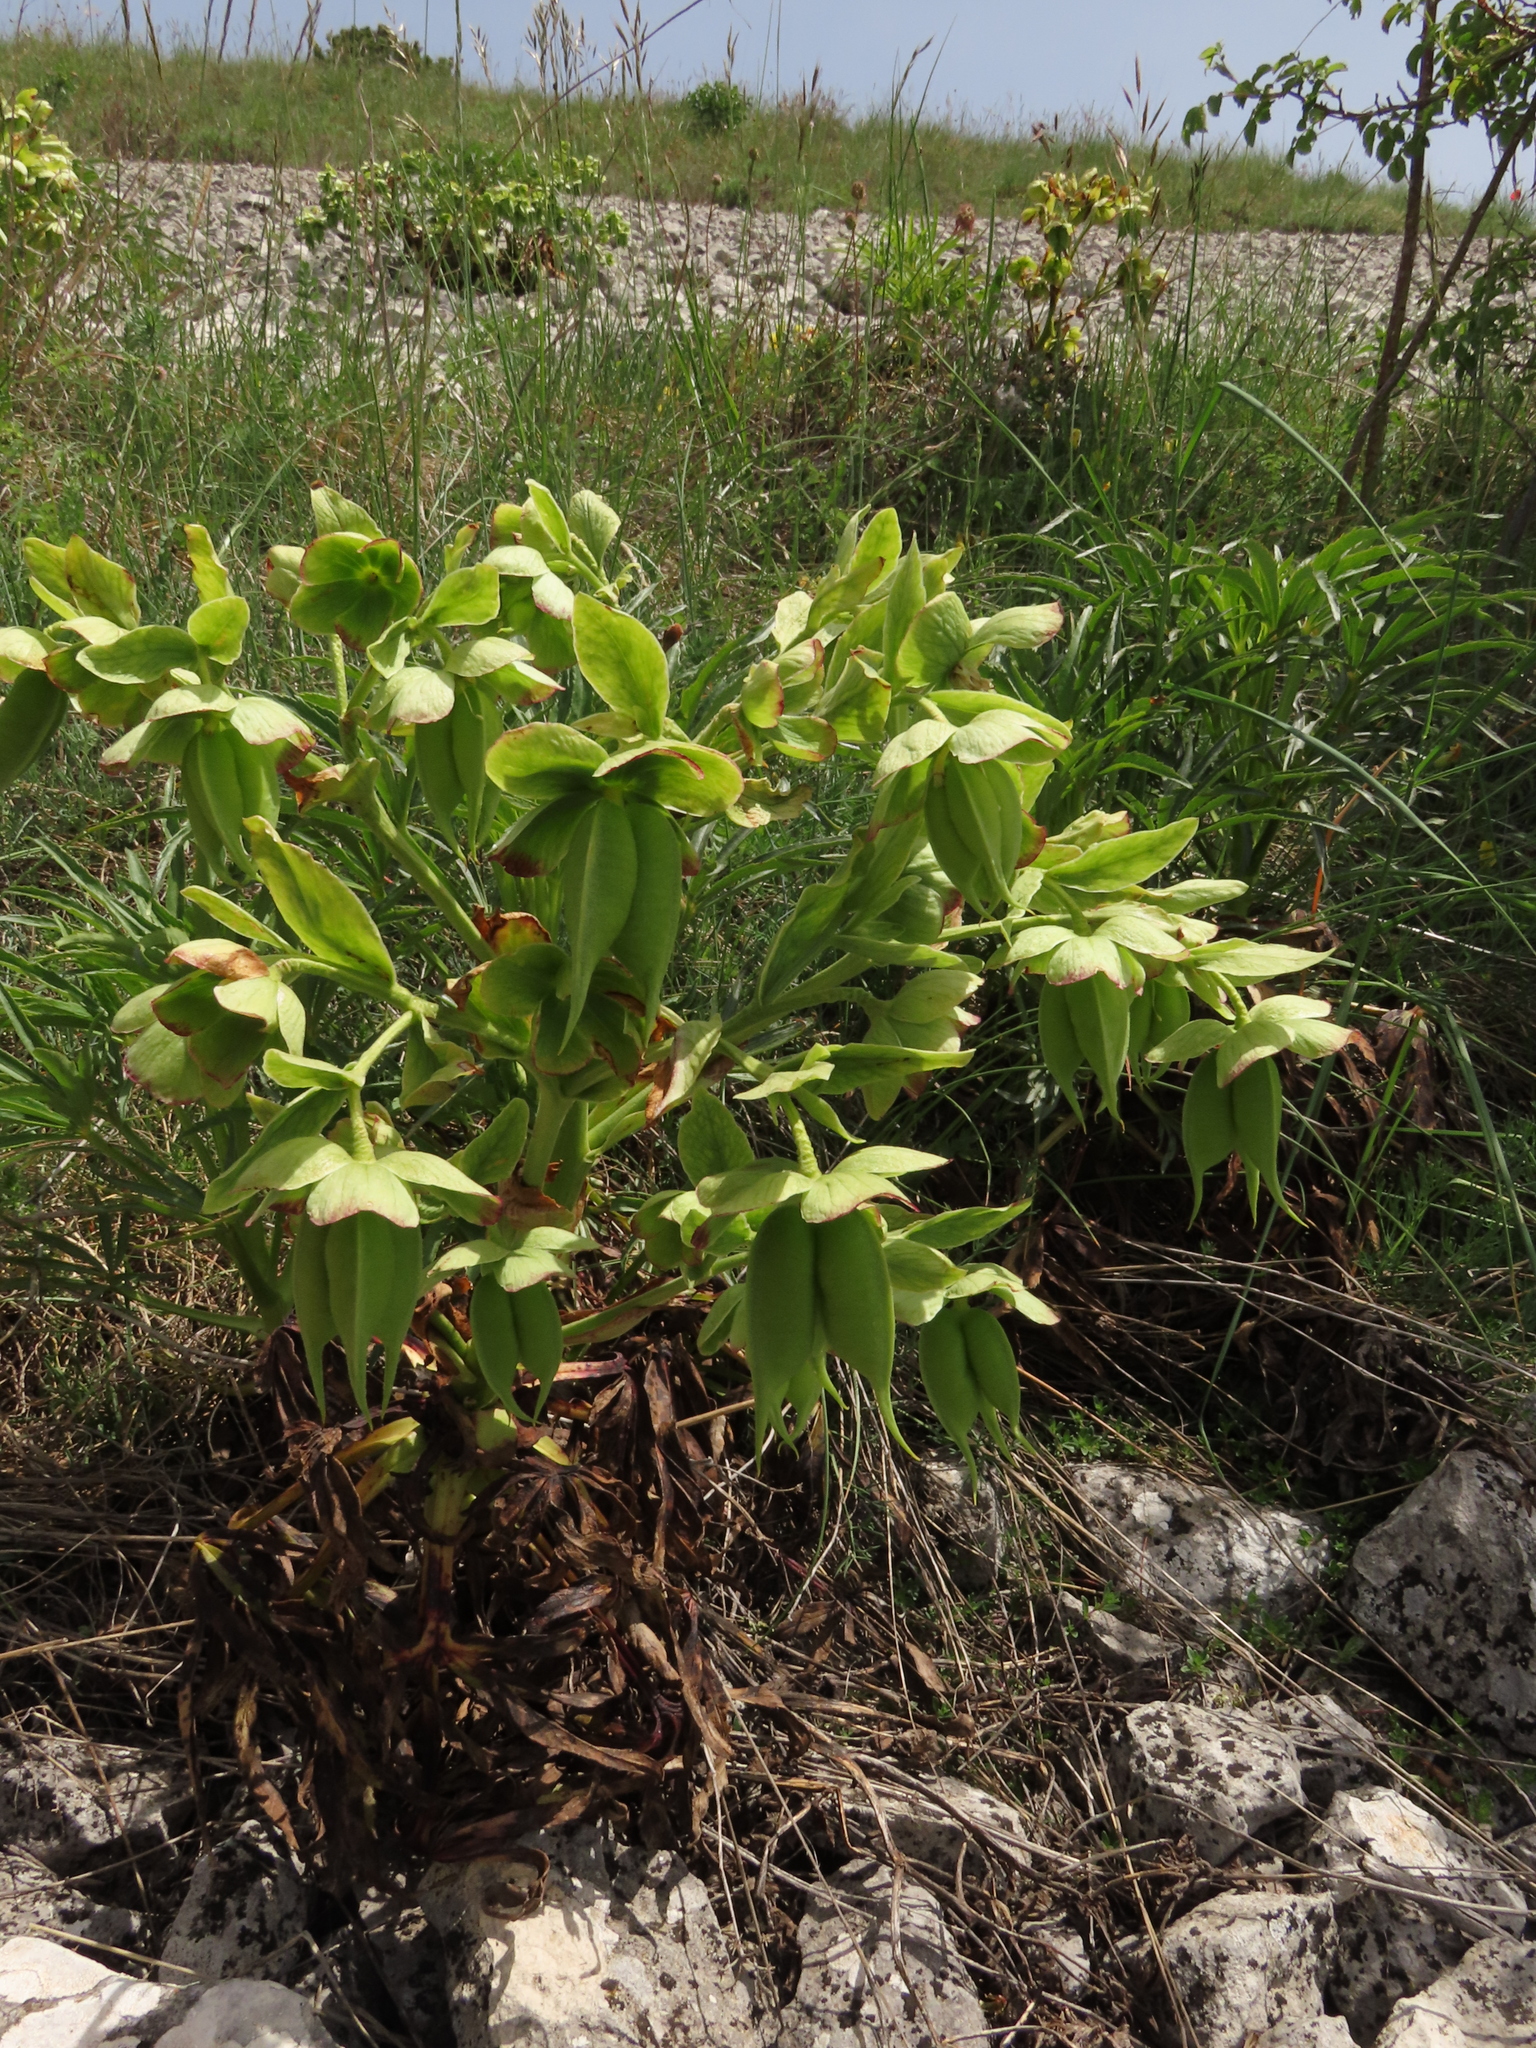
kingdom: Plantae
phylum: Tracheophyta
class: Magnoliopsida
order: Ranunculales
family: Ranunculaceae
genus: Helleborus
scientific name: Helleborus viridis
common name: Green hellebore
